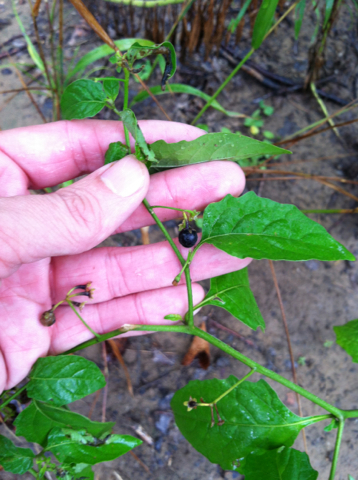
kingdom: Plantae
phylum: Tracheophyta
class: Magnoliopsida
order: Solanales
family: Solanaceae
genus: Solanum
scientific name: Solanum emulans
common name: Eastern black nightshade
